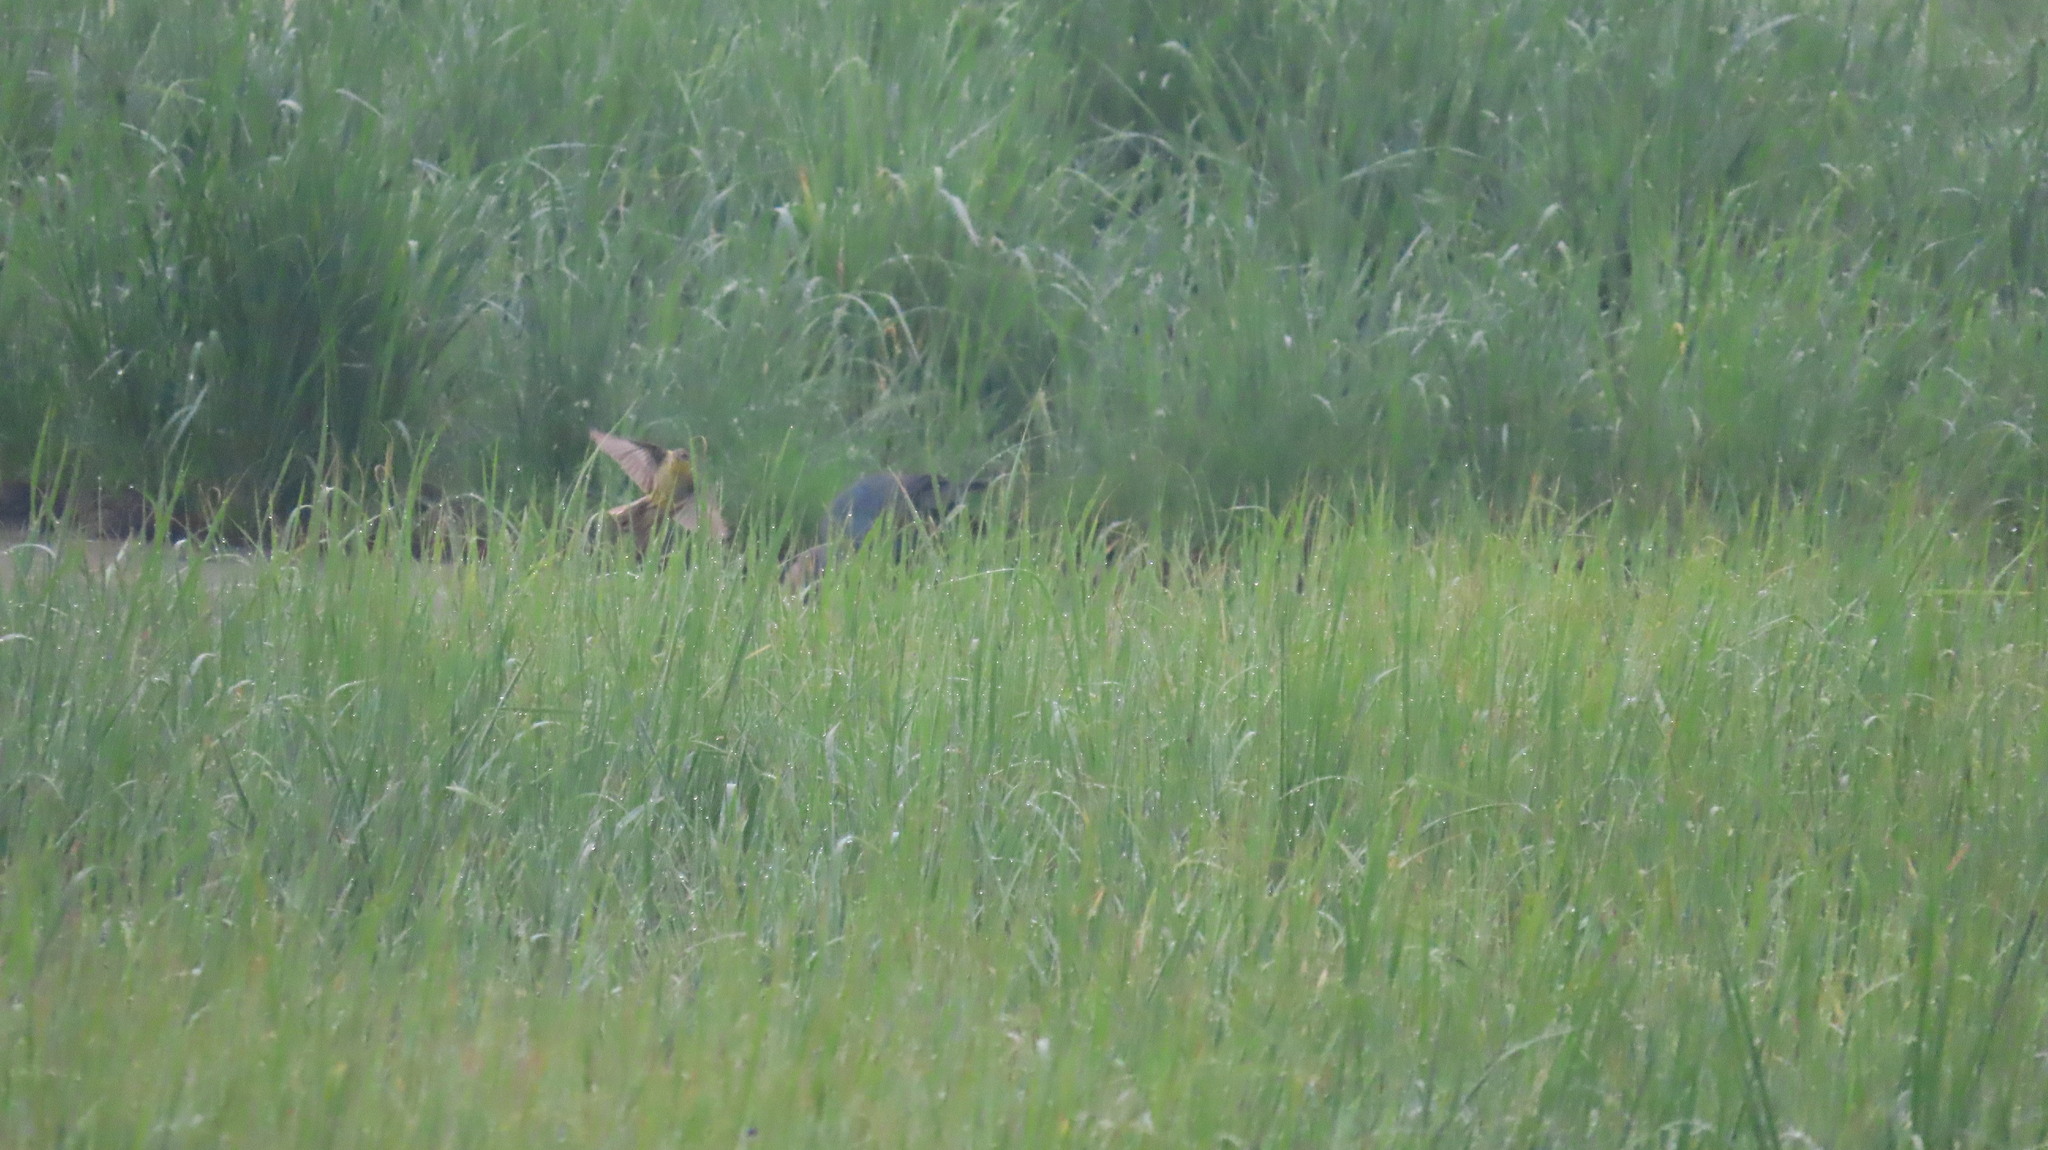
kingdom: Animalia
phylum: Chordata
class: Aves
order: Gruiformes
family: Rallidae
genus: Porphyrio
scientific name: Porphyrio porphyrio
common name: Purple swamphen
